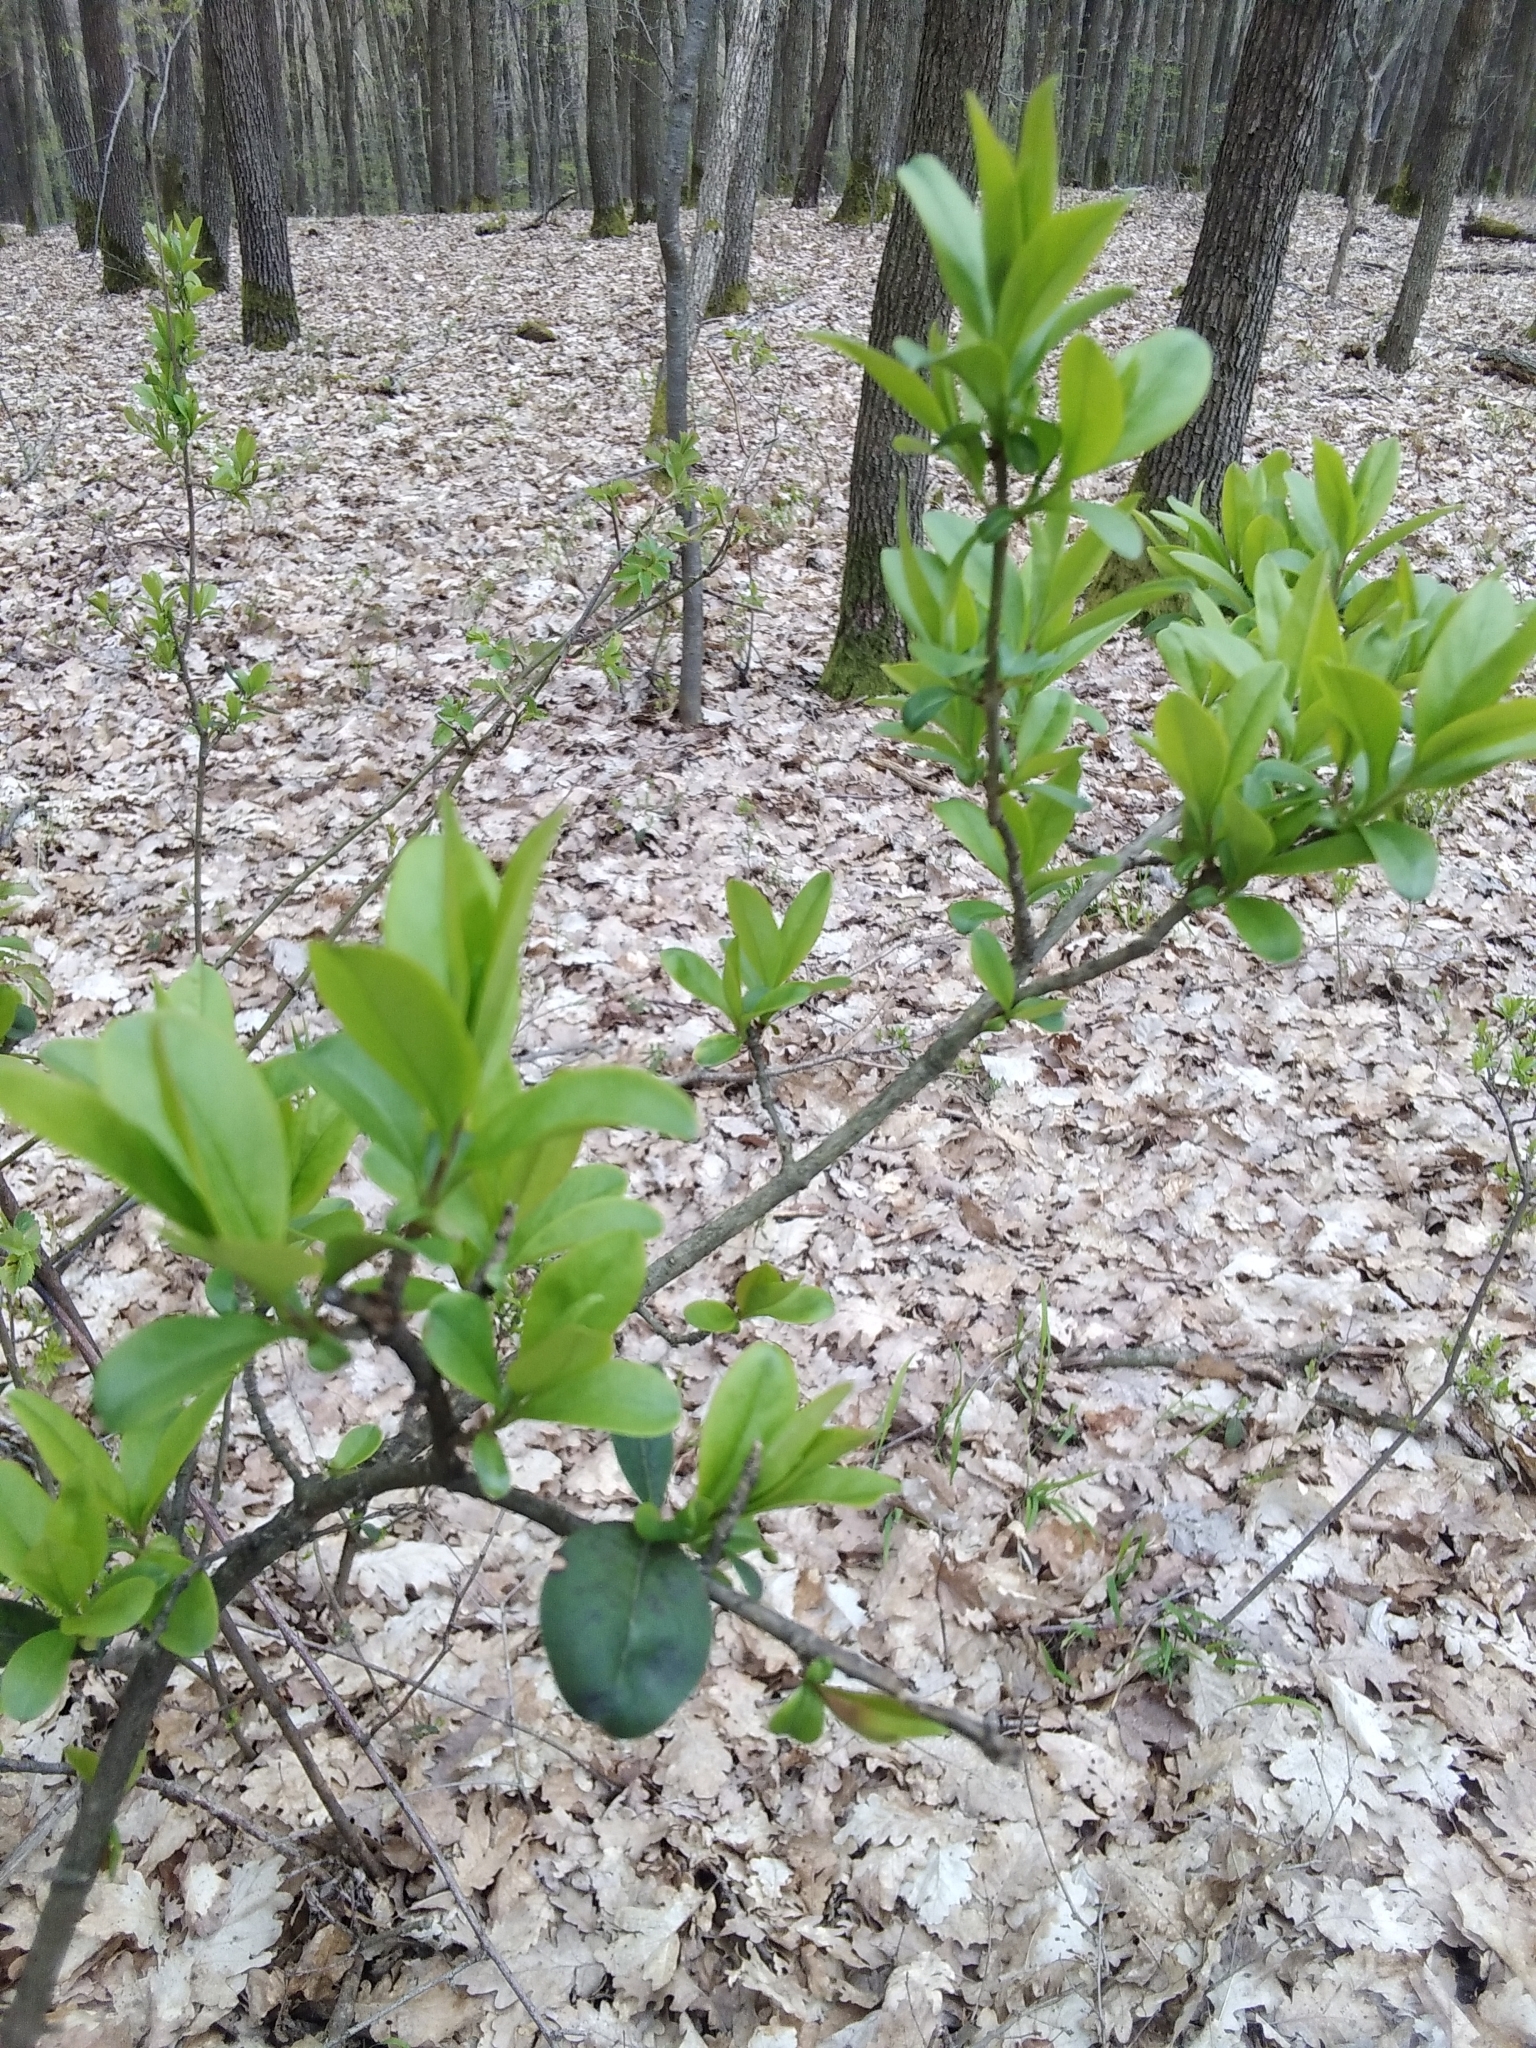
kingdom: Plantae
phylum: Tracheophyta
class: Magnoliopsida
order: Lamiales
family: Oleaceae
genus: Ligustrum
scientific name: Ligustrum vulgare
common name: Wild privet
